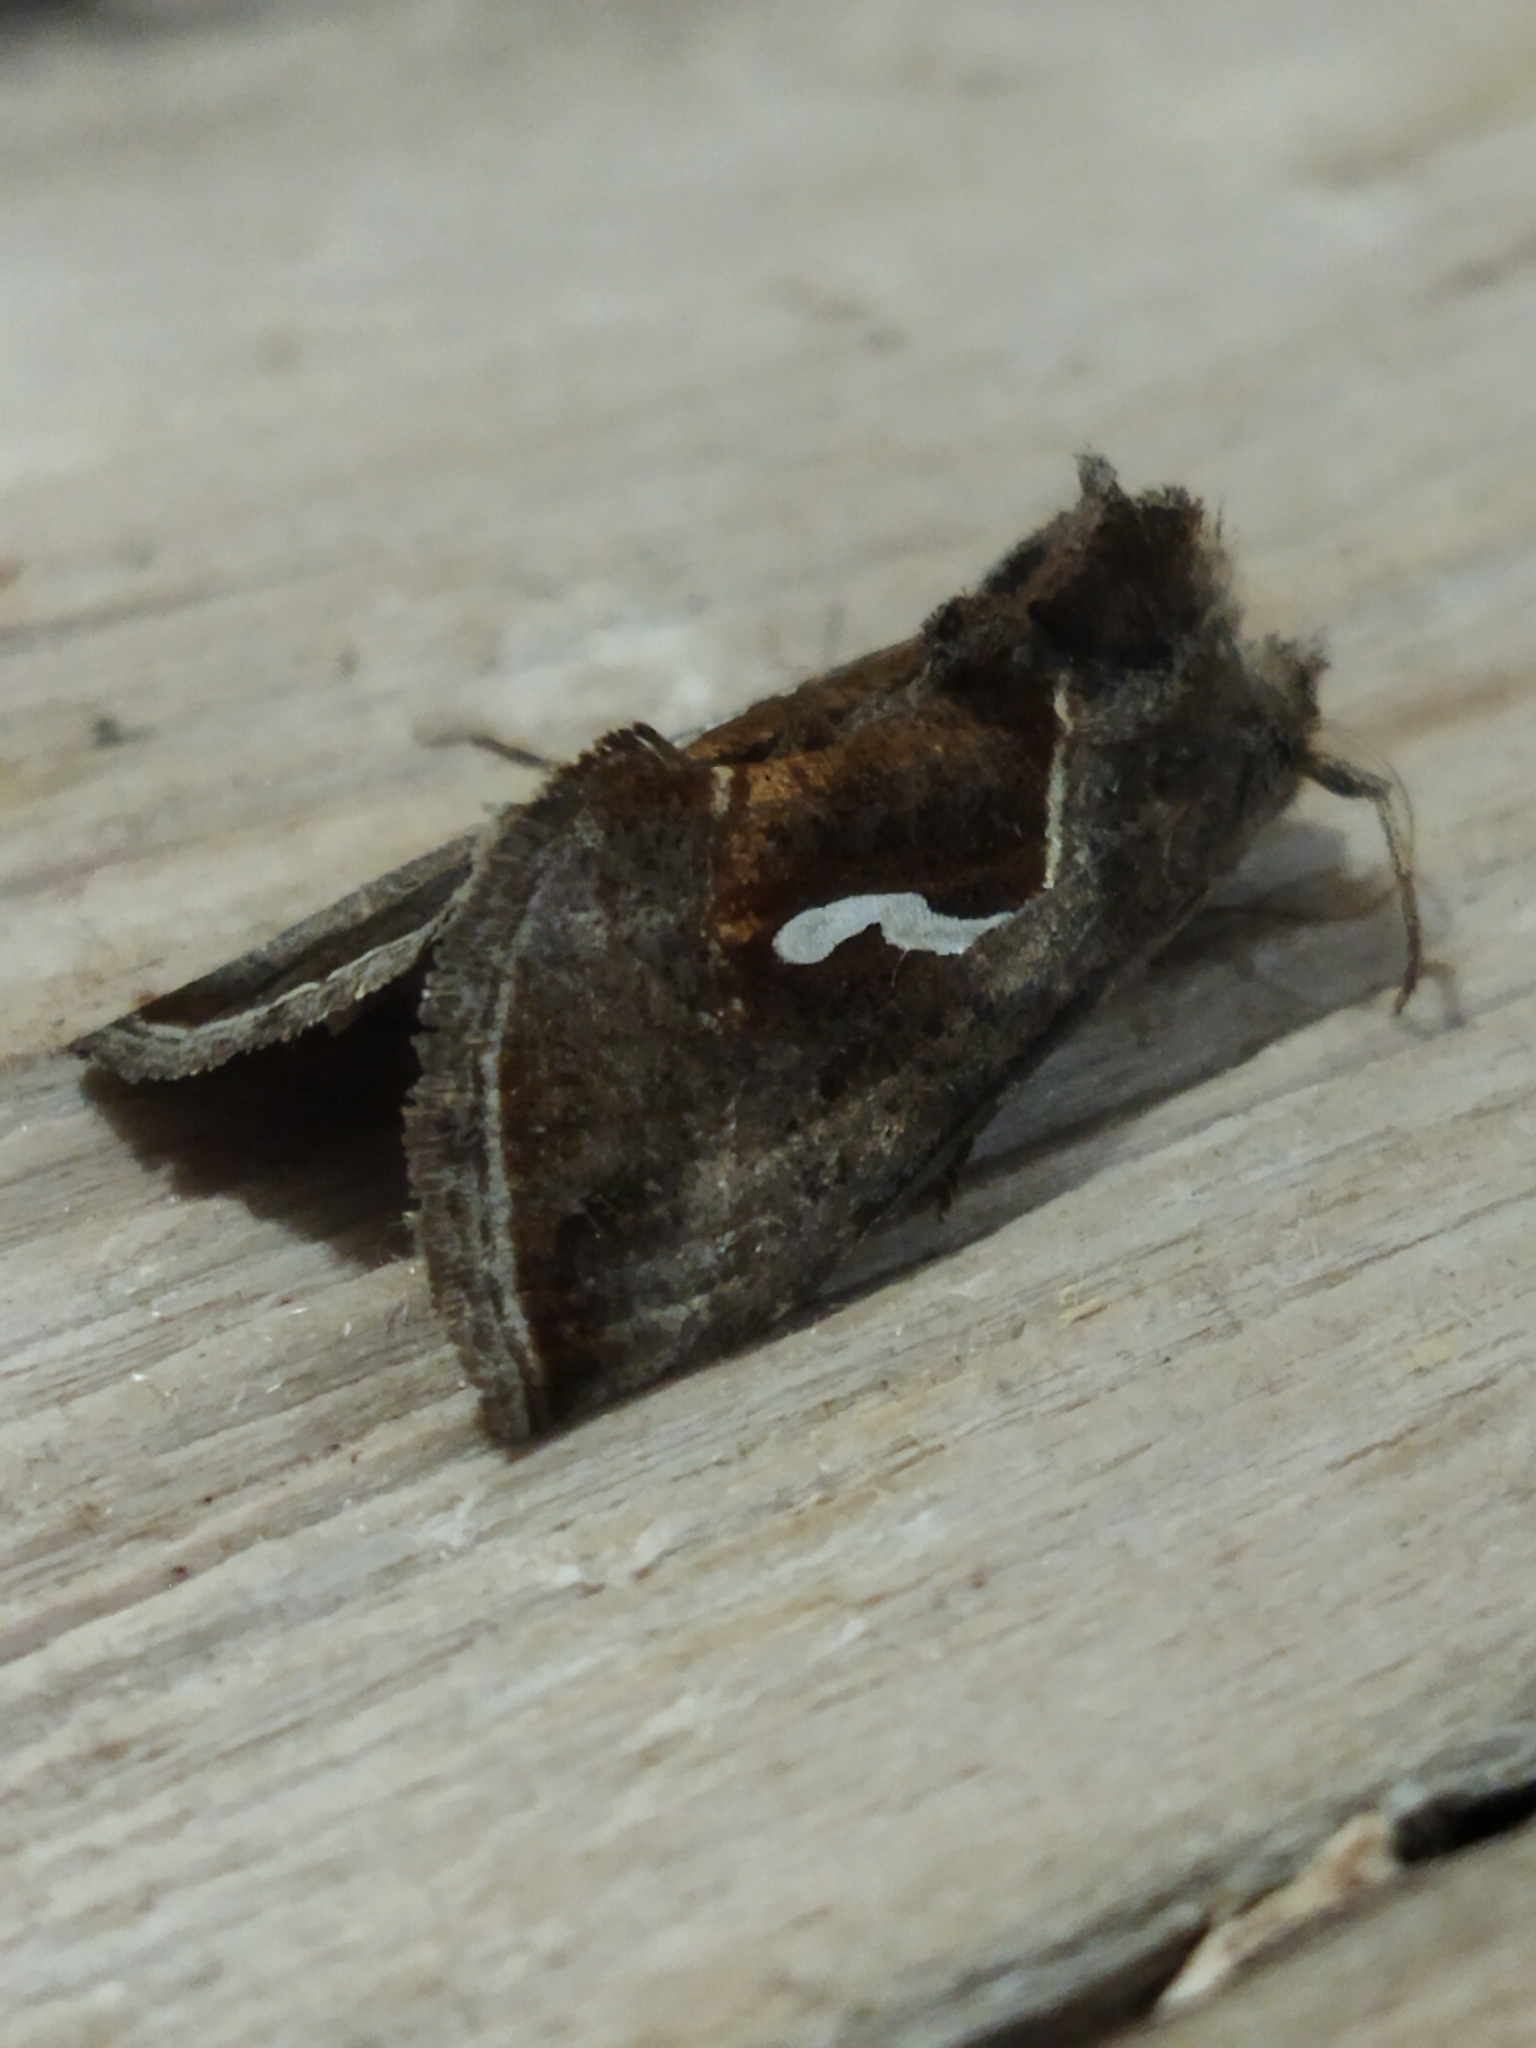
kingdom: Animalia
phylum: Arthropoda
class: Insecta
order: Lepidoptera
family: Noctuidae
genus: Macdunnoughia
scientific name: Macdunnoughia confusa
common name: Dewick's plusia
